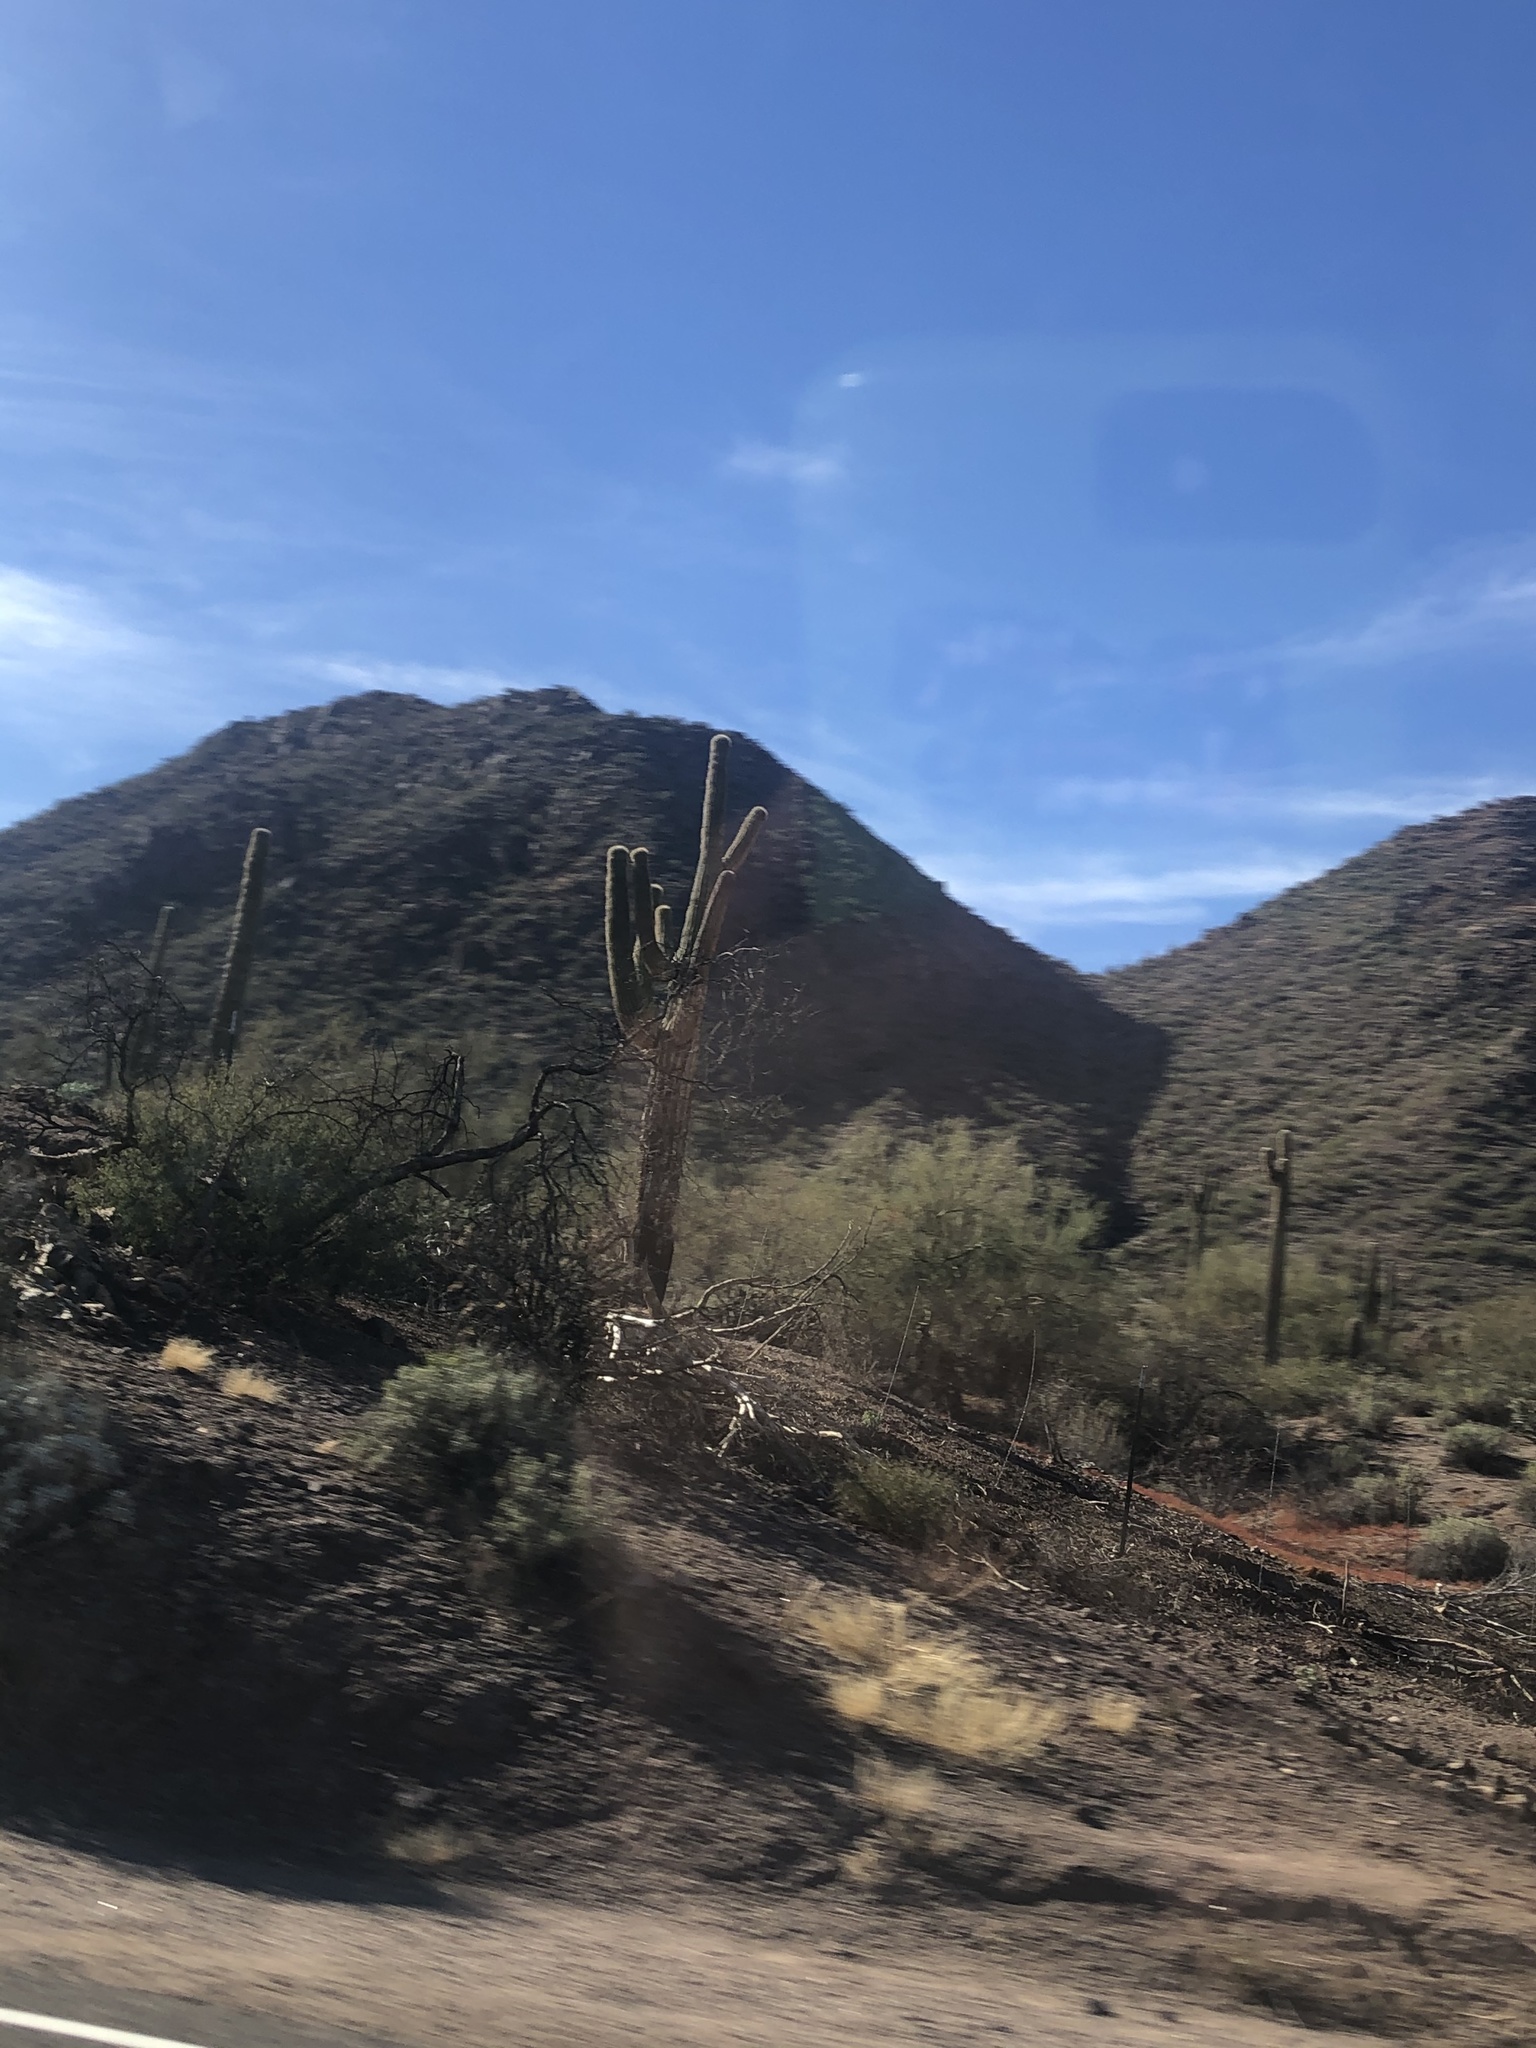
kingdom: Plantae
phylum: Tracheophyta
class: Magnoliopsida
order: Caryophyllales
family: Cactaceae
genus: Carnegiea
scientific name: Carnegiea gigantea
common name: Saguaro
